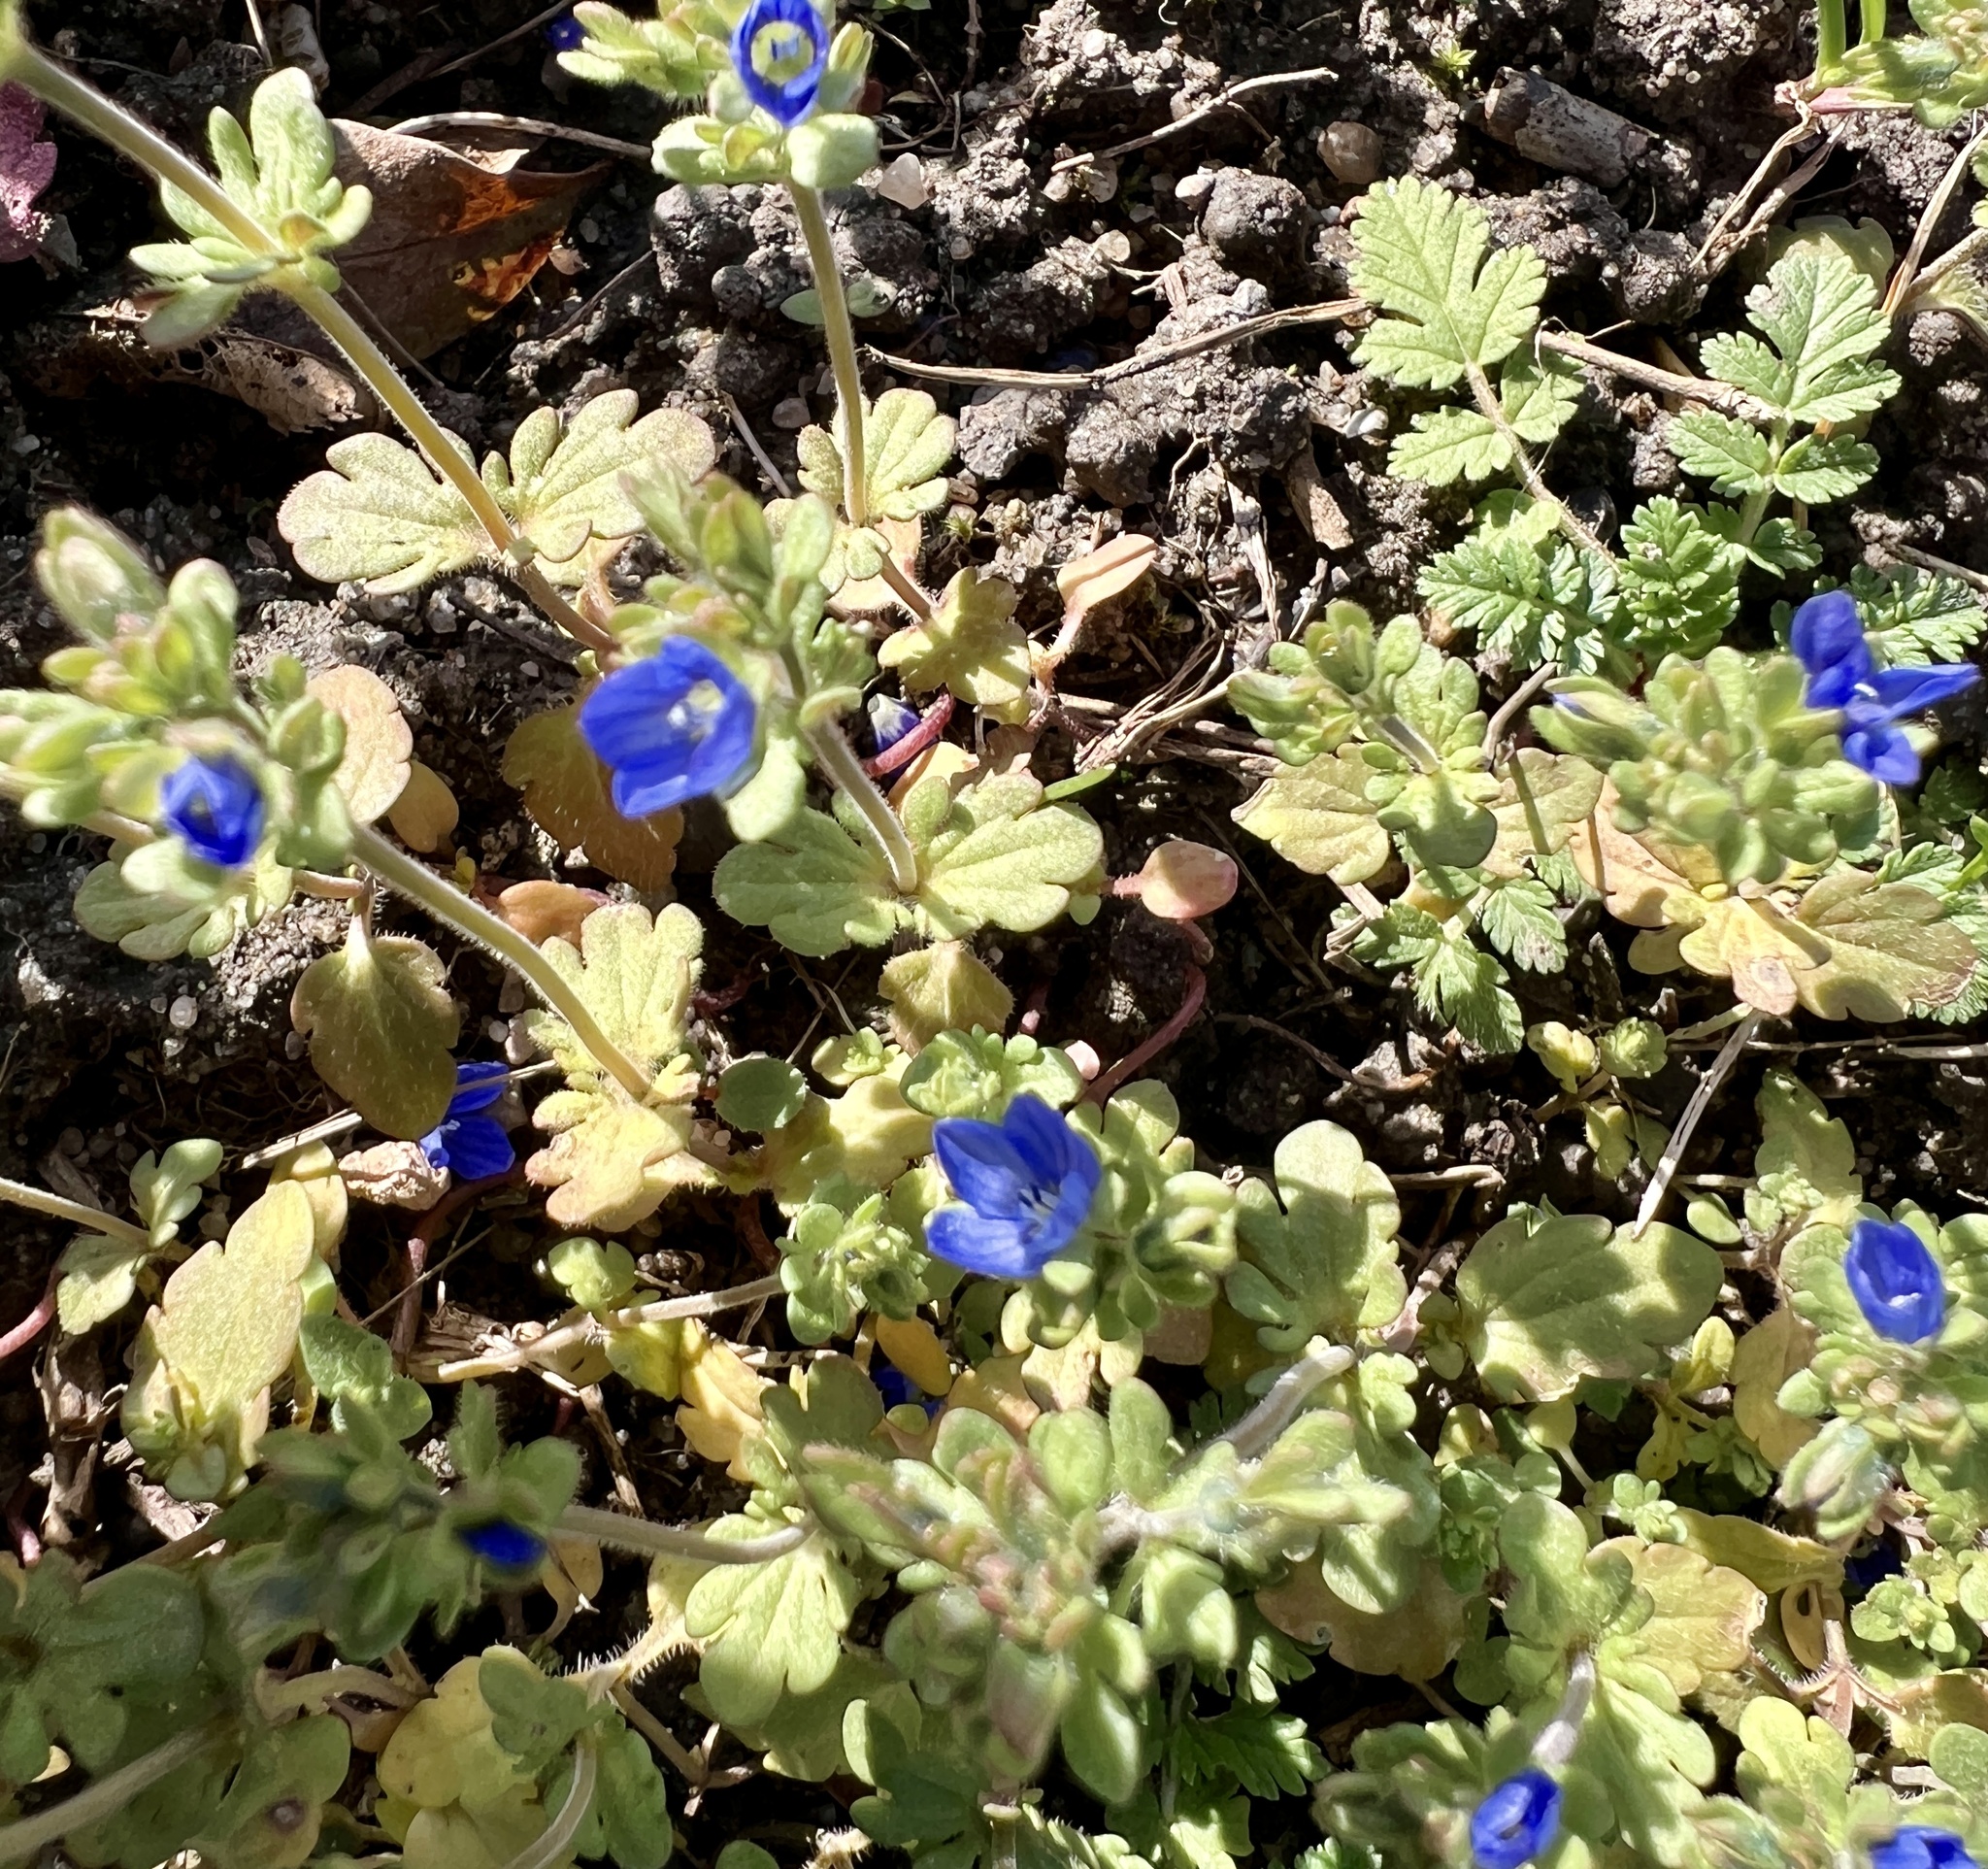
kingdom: Plantae
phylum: Tracheophyta
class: Magnoliopsida
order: Lamiales
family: Plantaginaceae
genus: Veronica
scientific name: Veronica triphyllos
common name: Fingered speedwell
